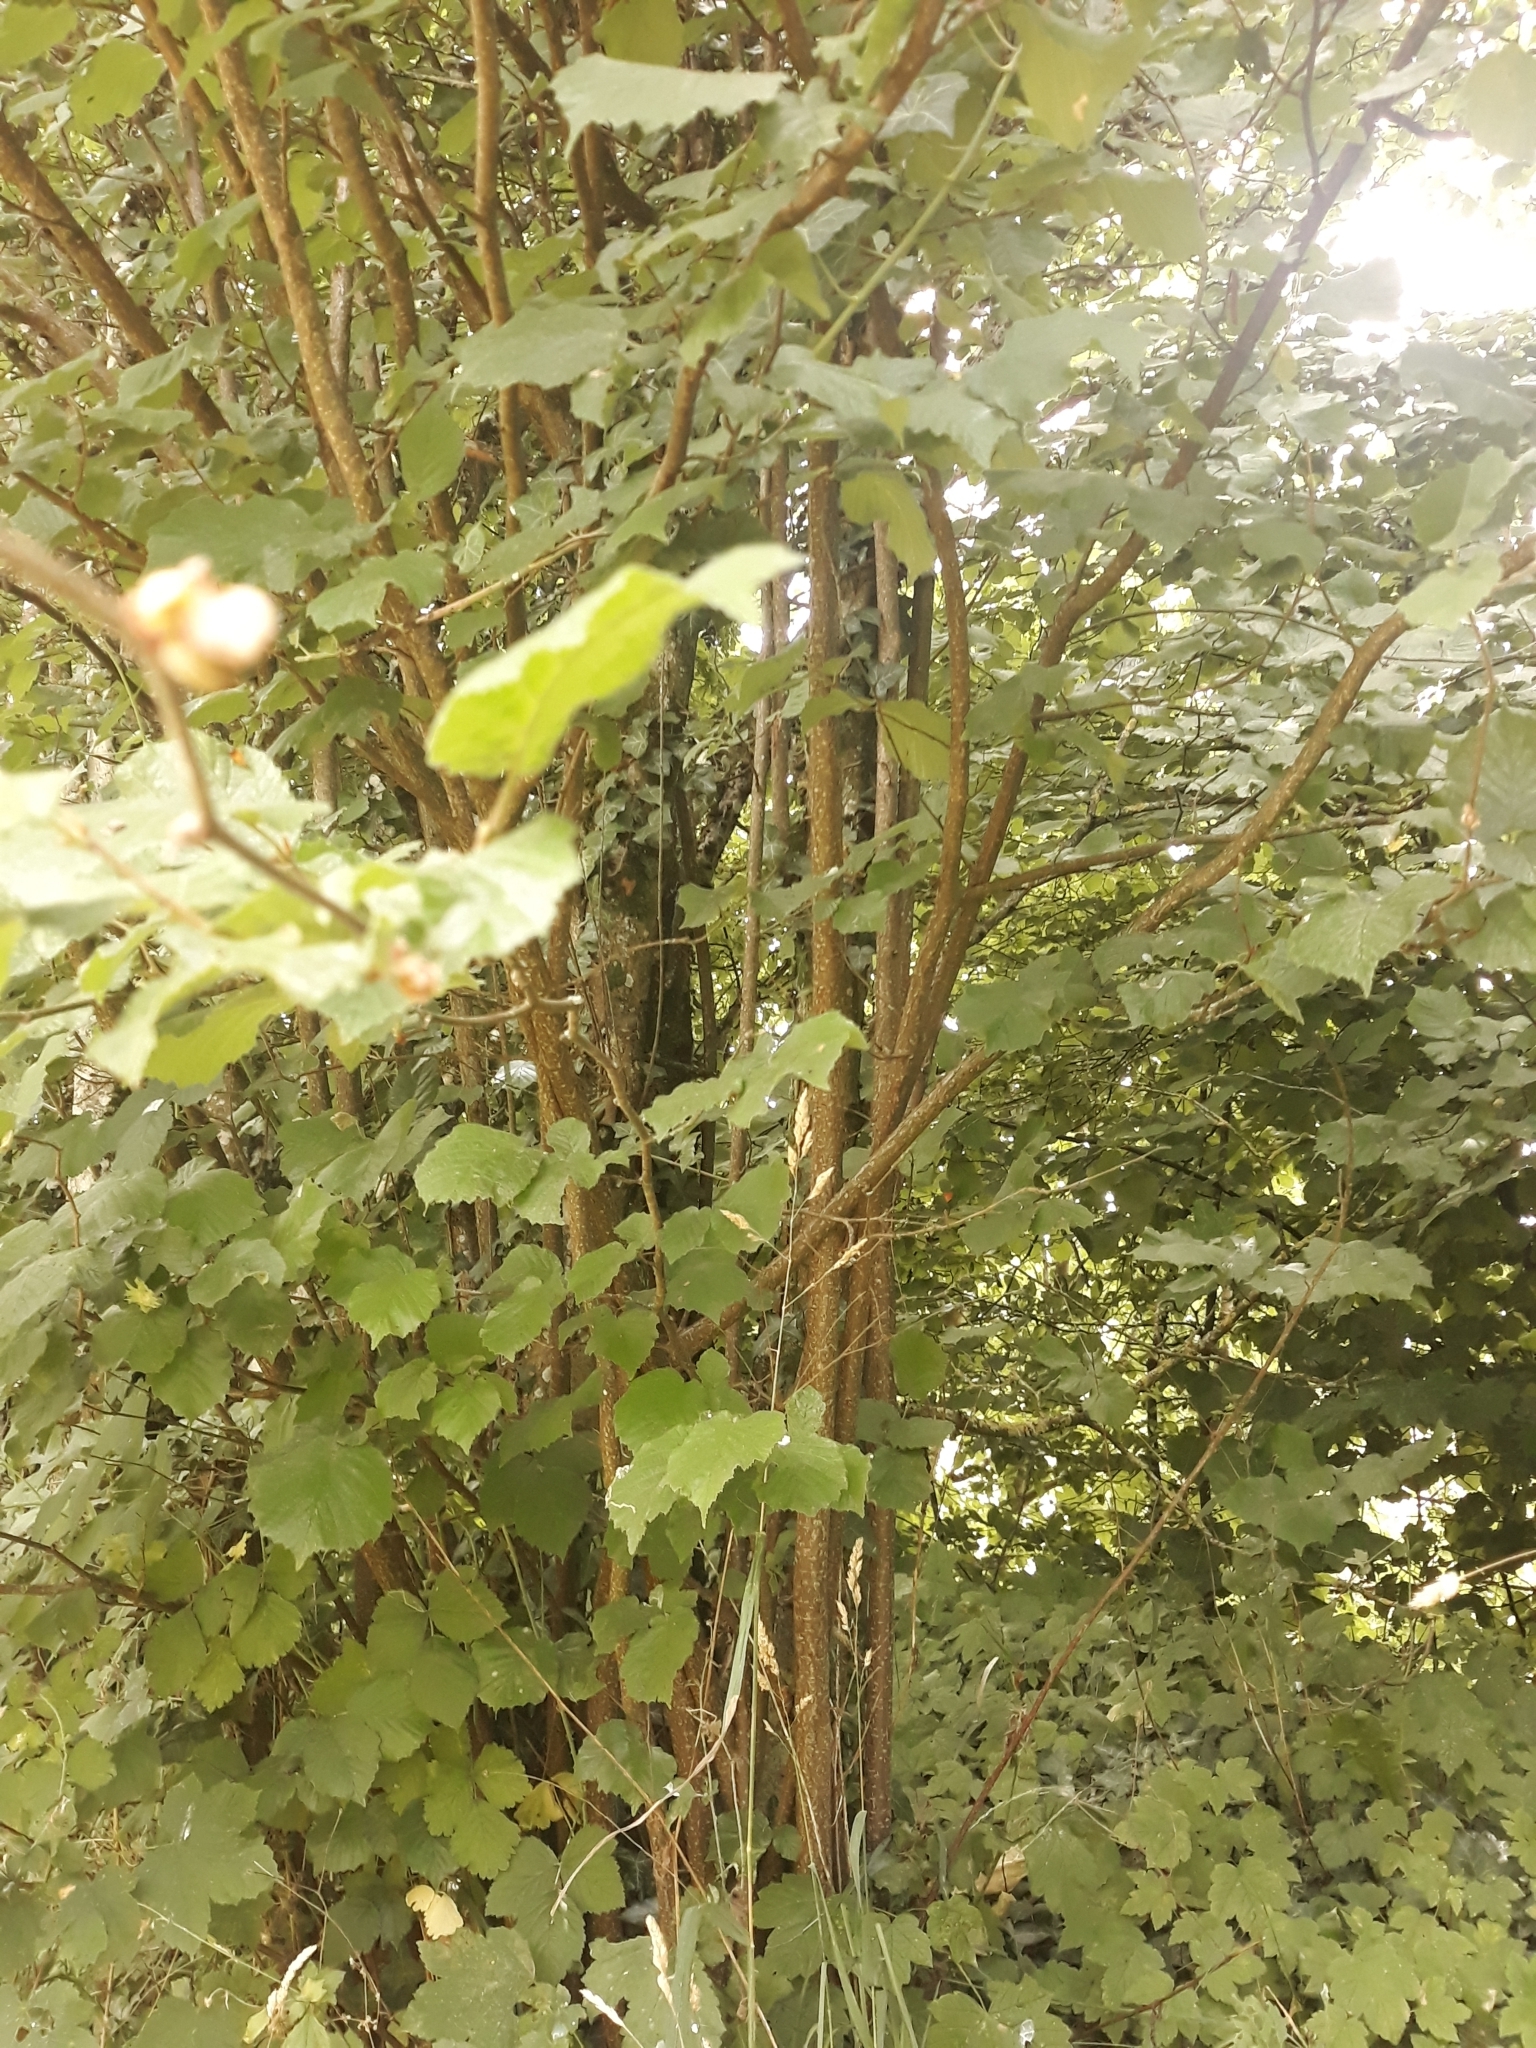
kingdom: Plantae
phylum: Tracheophyta
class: Magnoliopsida
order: Fagales
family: Betulaceae
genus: Corylus
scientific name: Corylus avellana
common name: European hazel
